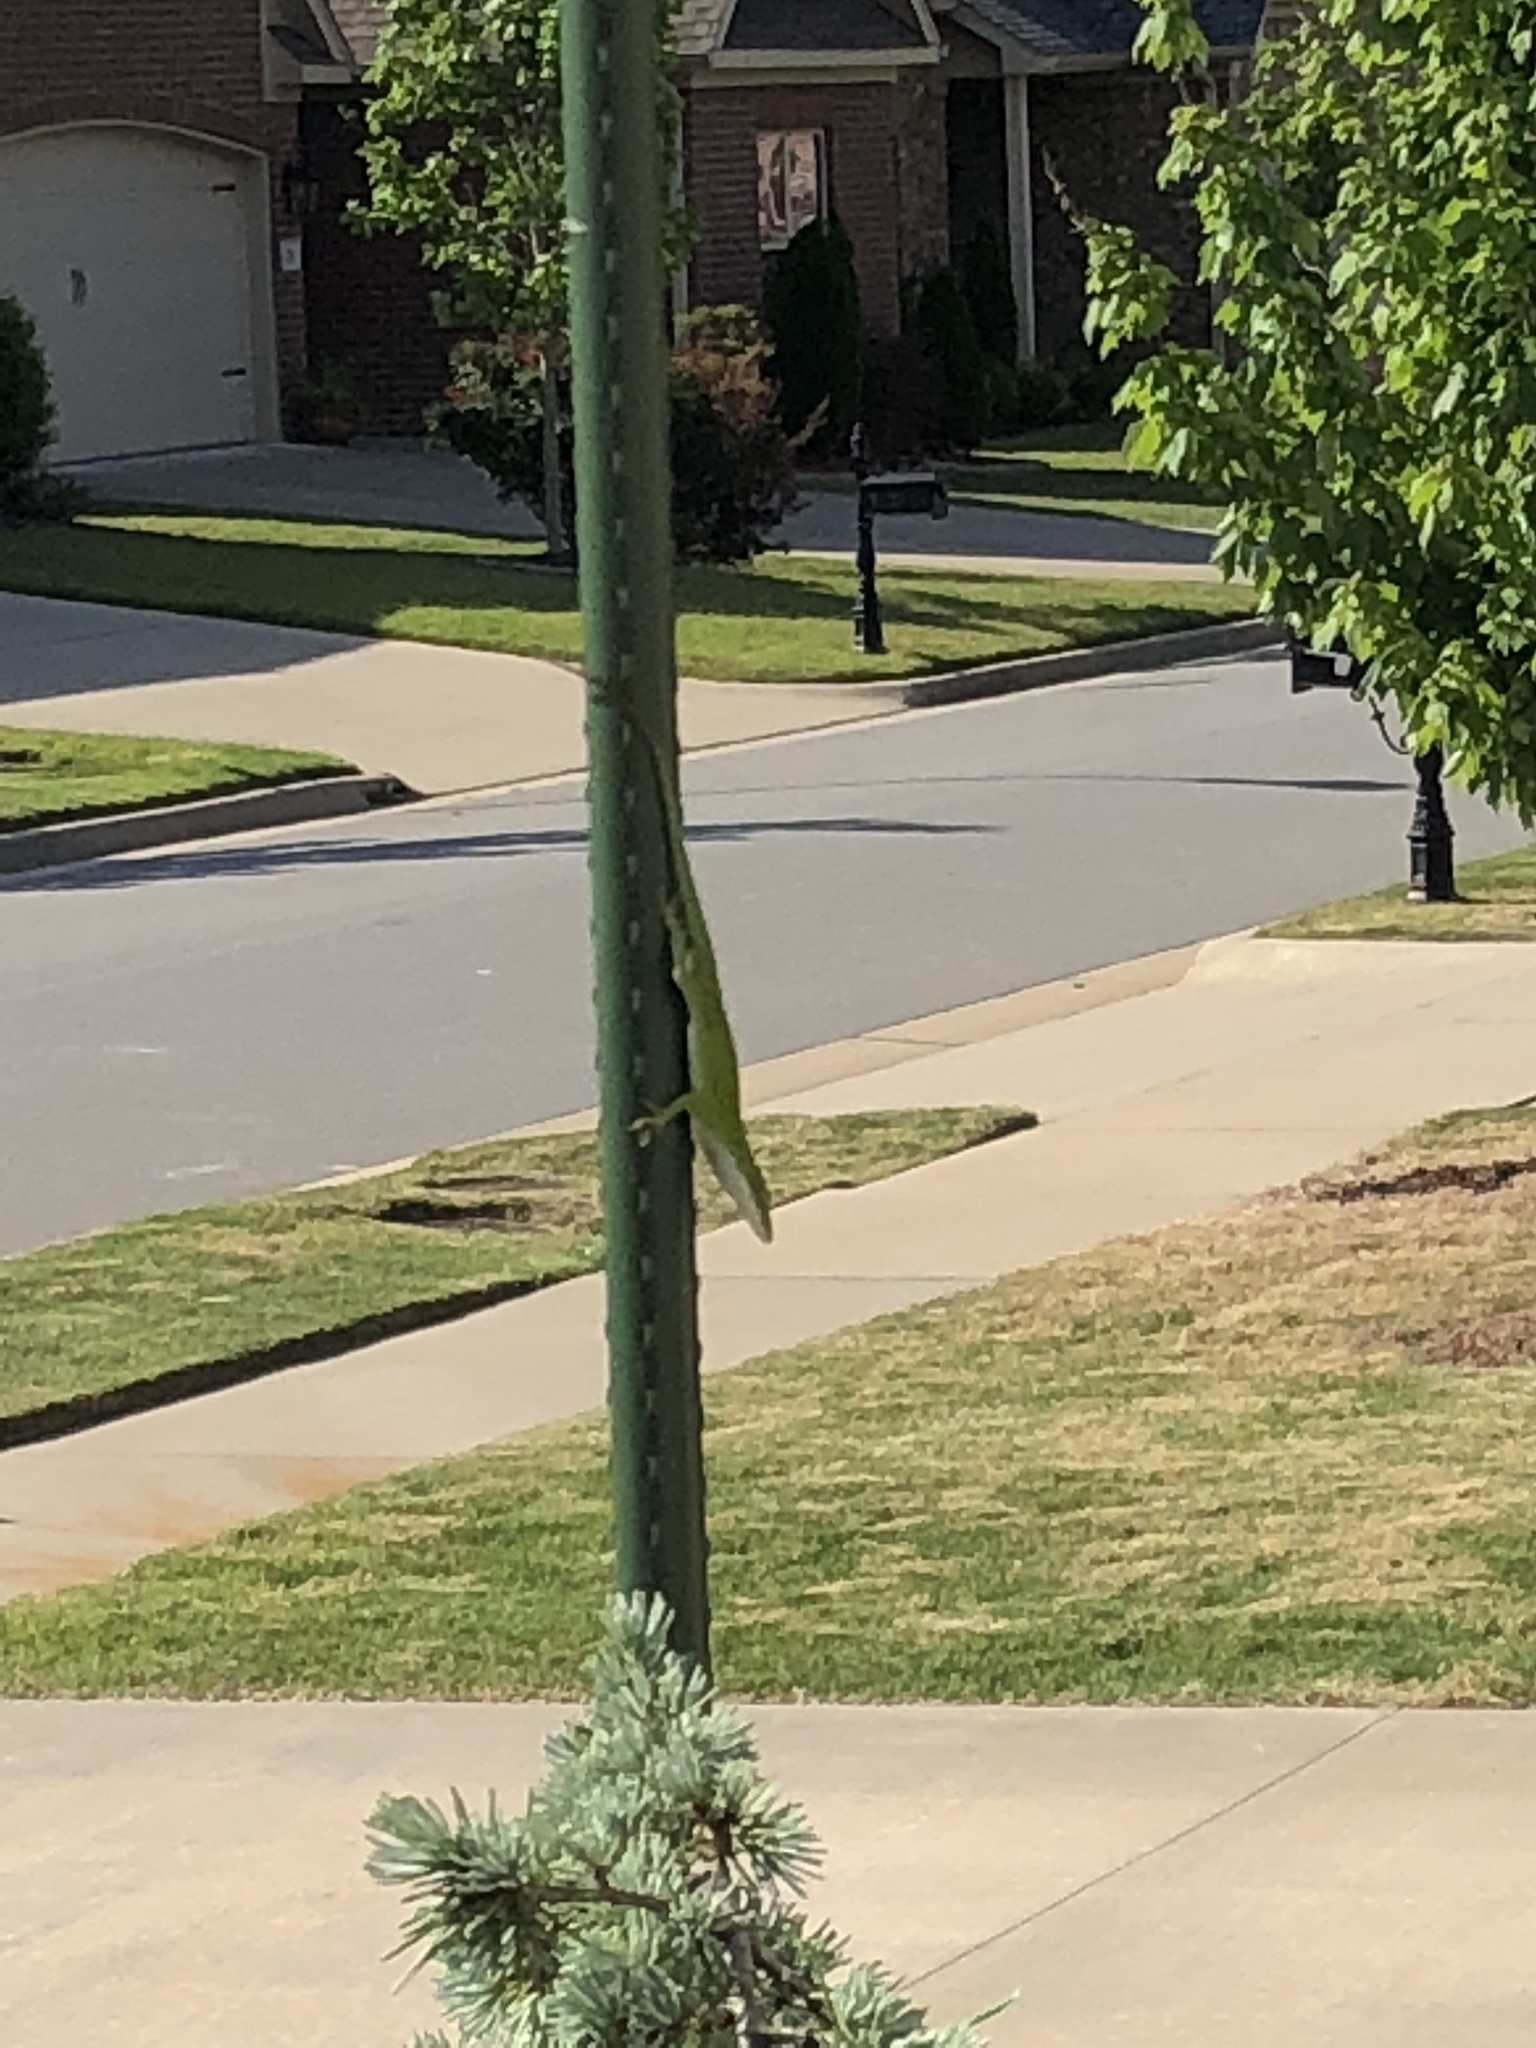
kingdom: Animalia
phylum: Chordata
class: Squamata
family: Dactyloidae
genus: Anolis
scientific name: Anolis carolinensis
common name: Green anole
